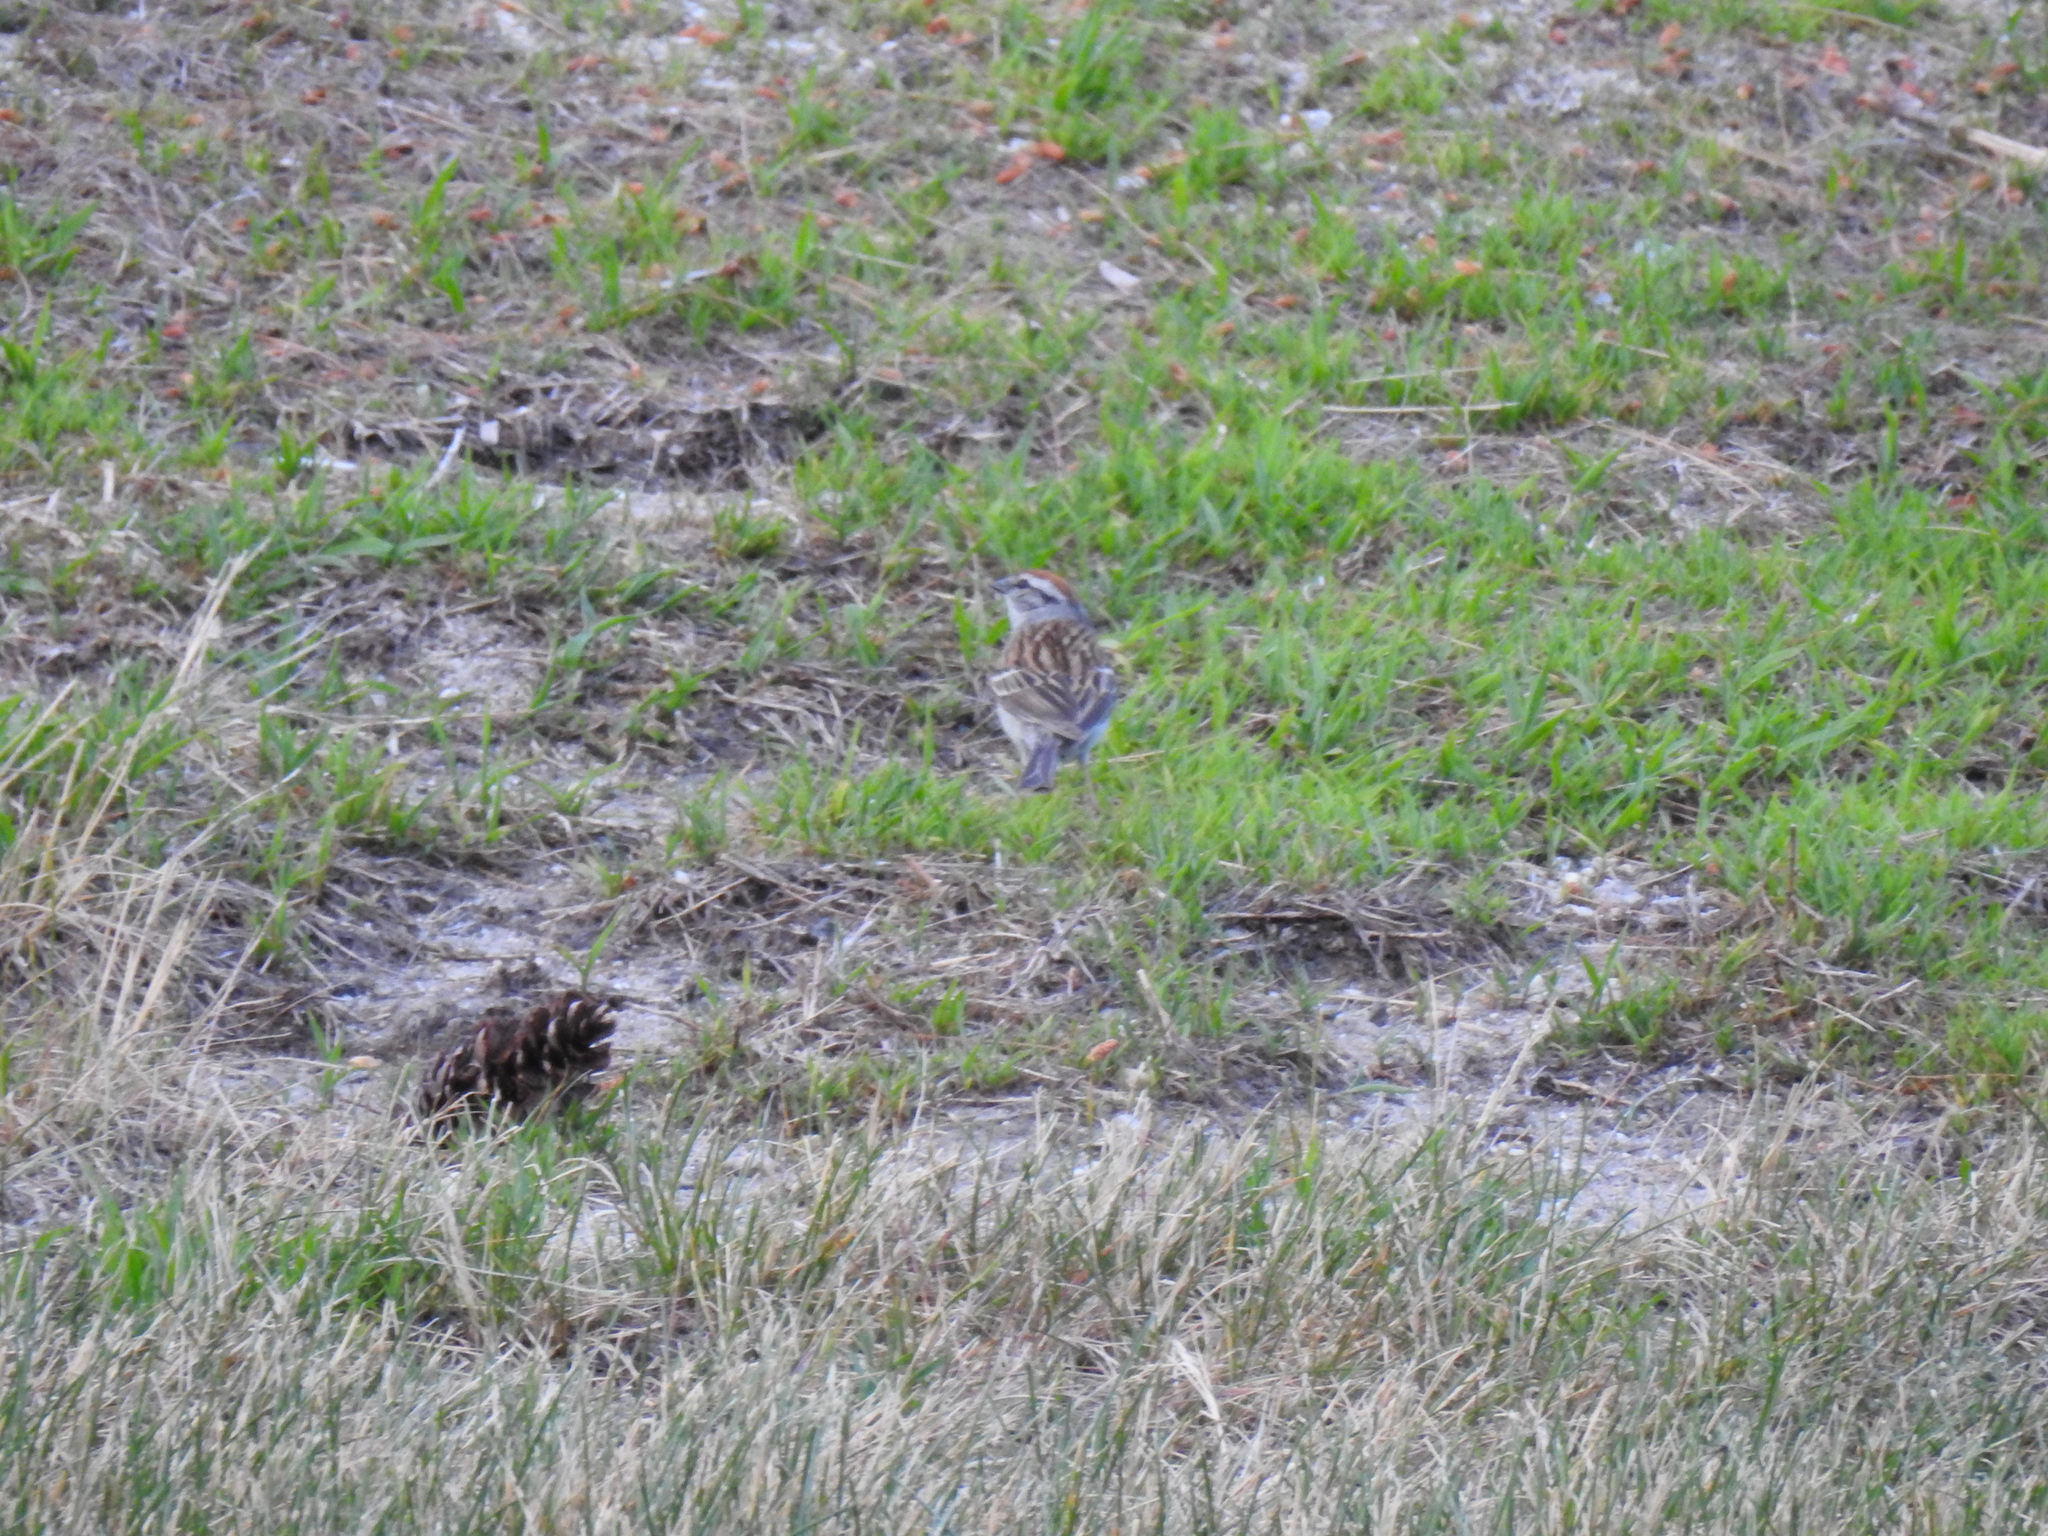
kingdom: Animalia
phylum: Chordata
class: Aves
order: Passeriformes
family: Passerellidae
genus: Spizella
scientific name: Spizella passerina
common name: Chipping sparrow
